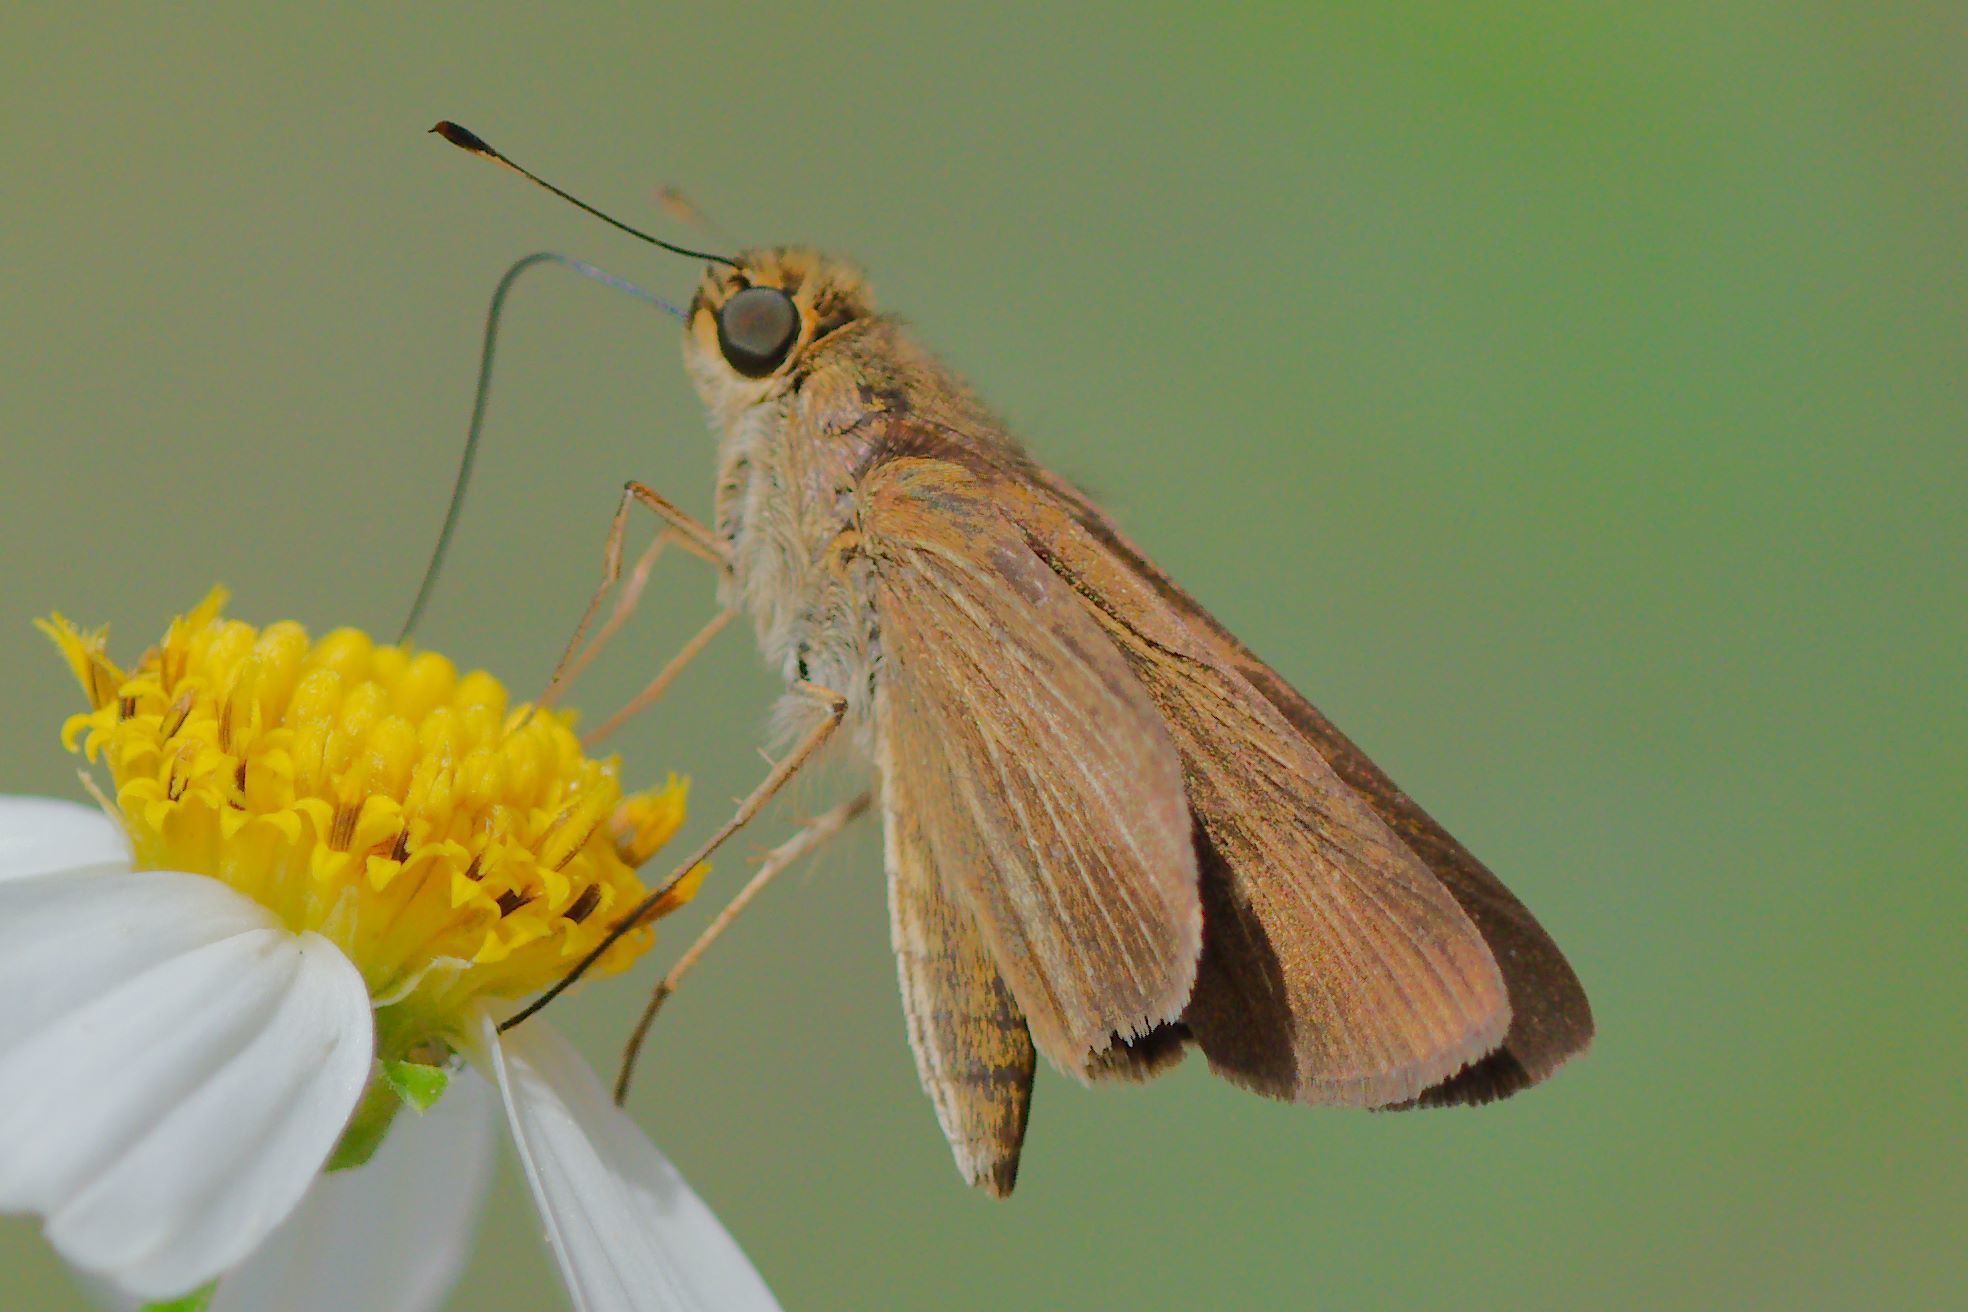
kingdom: Animalia
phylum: Arthropoda
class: Insecta
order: Lepidoptera
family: Hesperiidae
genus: Panoquina
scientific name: Panoquina ocola
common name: Ocola skipper
